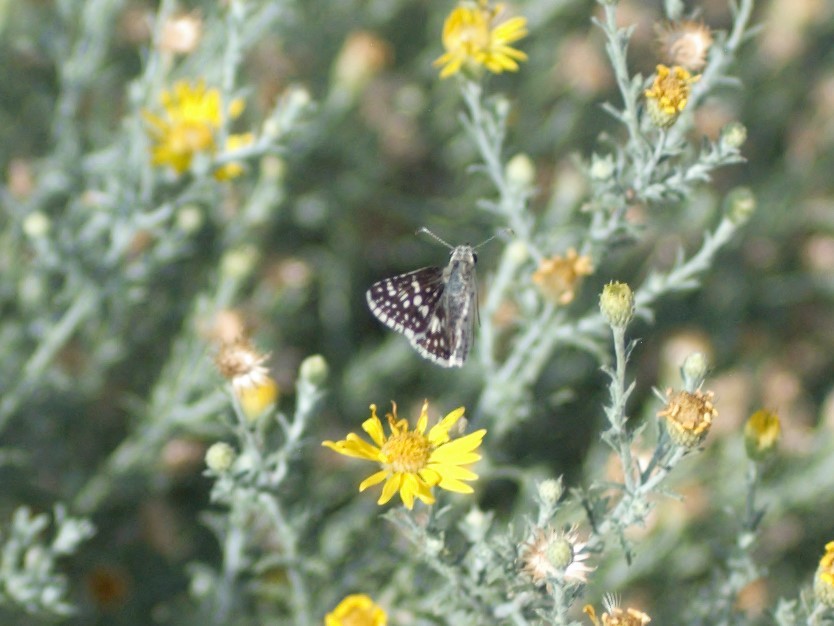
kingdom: Animalia
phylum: Arthropoda
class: Insecta
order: Lepidoptera
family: Hesperiidae
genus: Burnsius
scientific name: Burnsius
